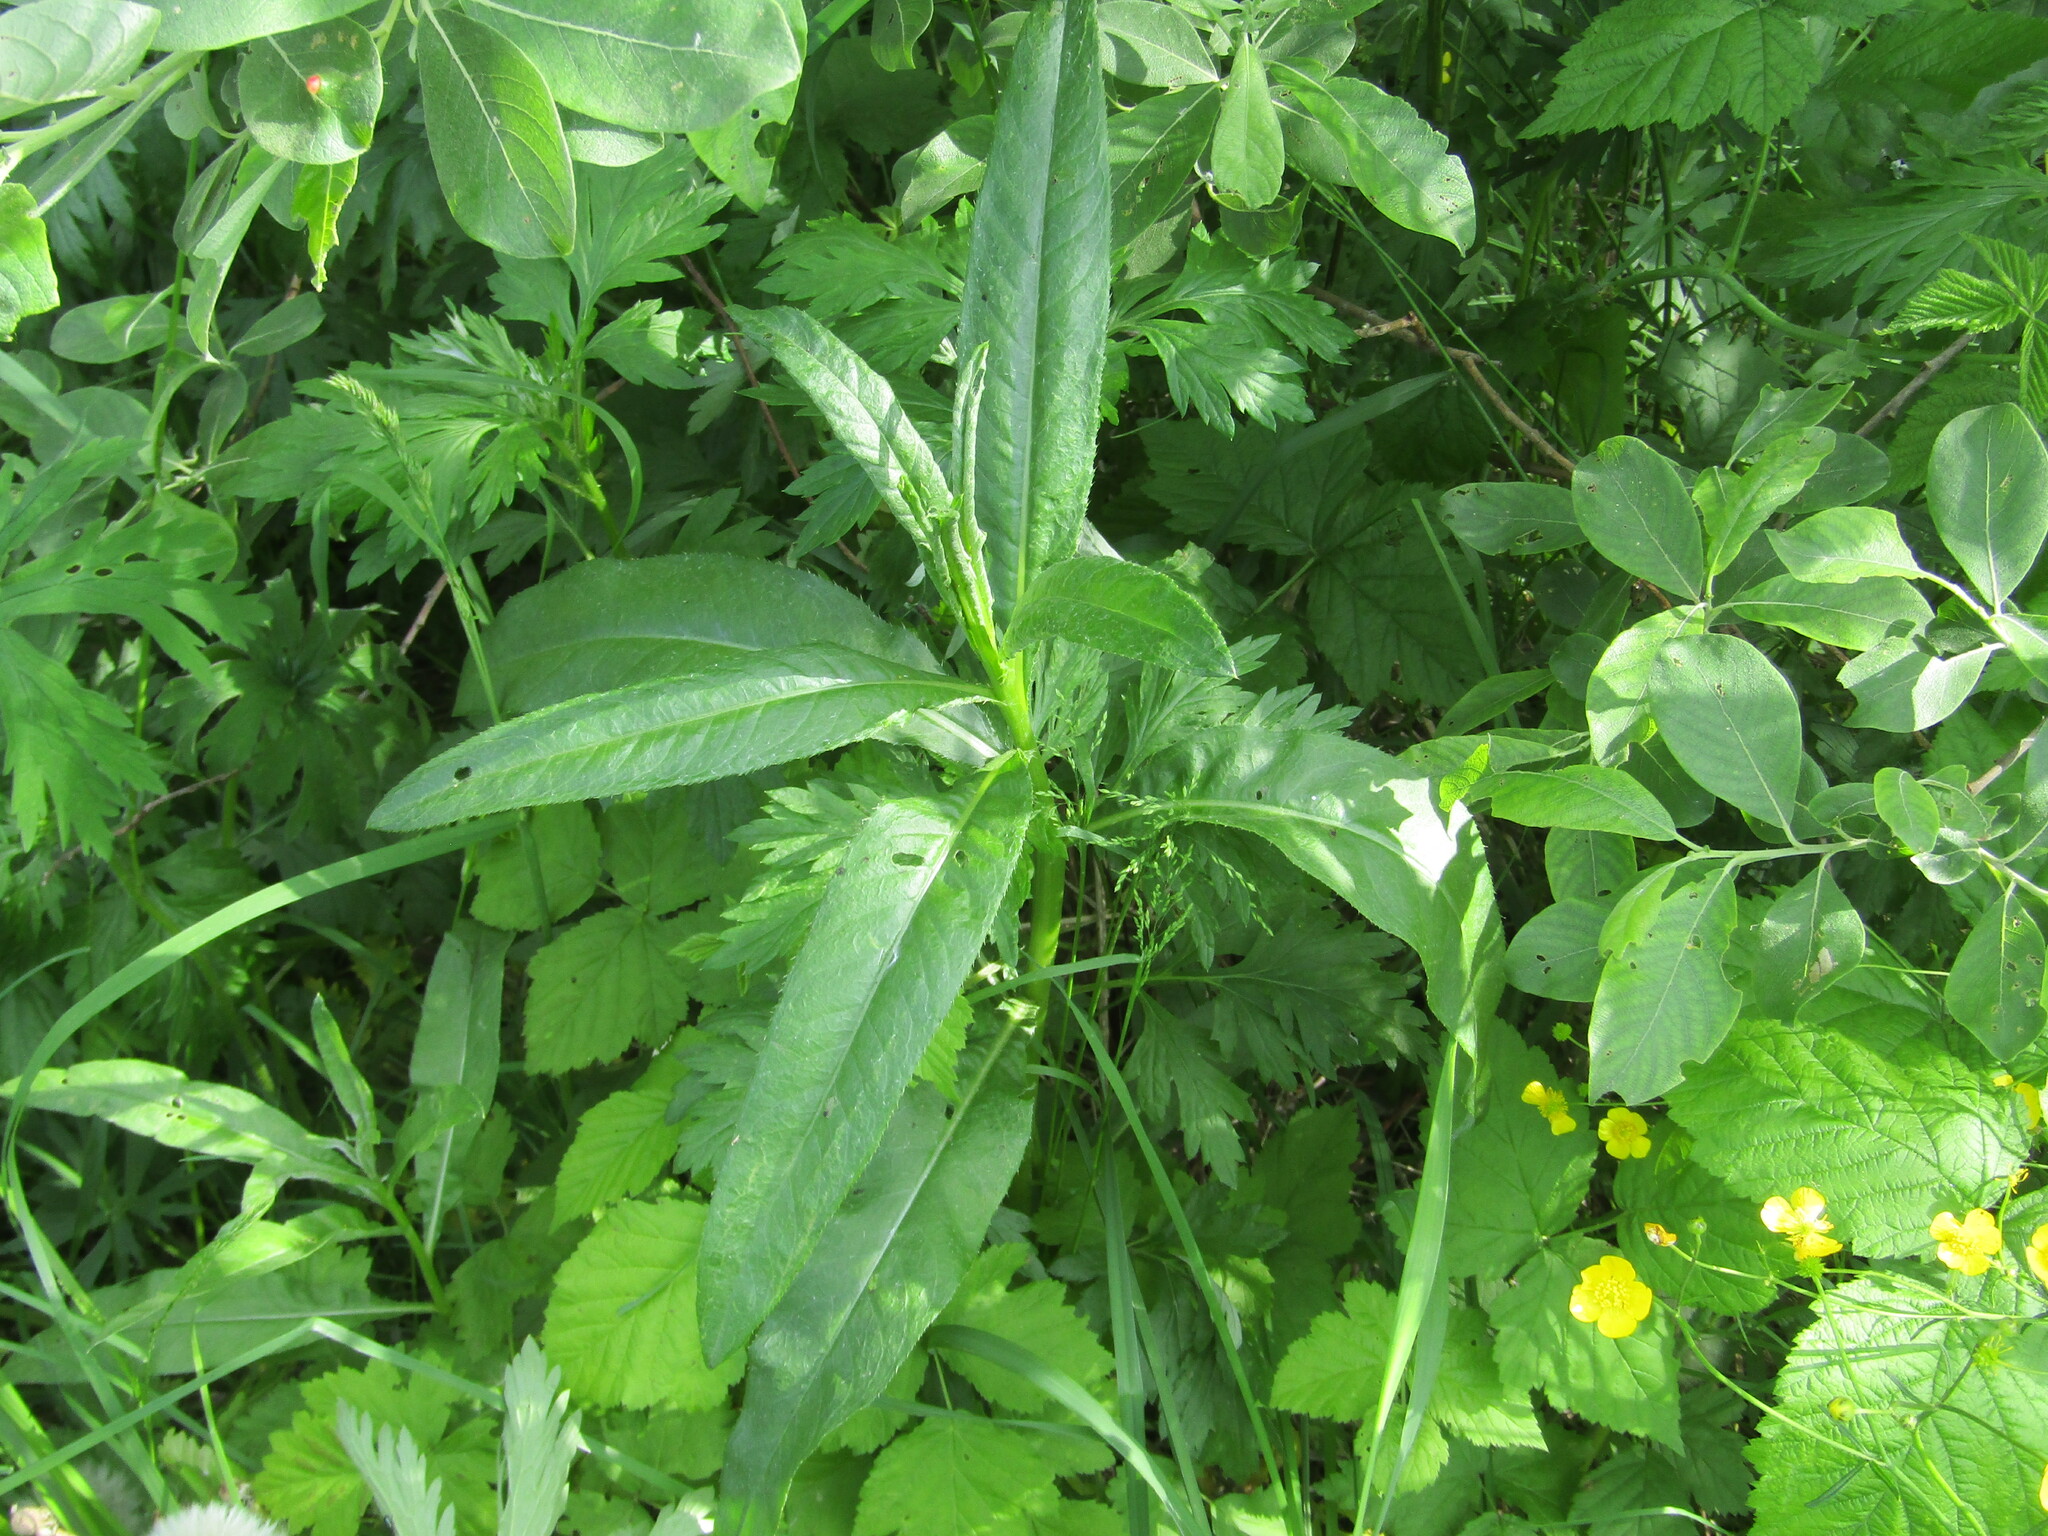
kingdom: Plantae
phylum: Tracheophyta
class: Magnoliopsida
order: Asterales
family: Asteraceae
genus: Cirsium
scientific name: Cirsium arvense
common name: Creeping thistle
